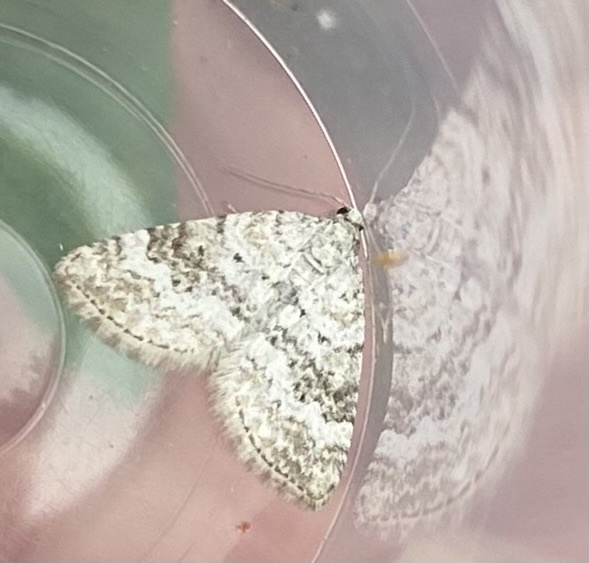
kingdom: Animalia
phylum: Arthropoda
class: Insecta
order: Lepidoptera
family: Geometridae
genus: Perizoma
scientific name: Perizoma albulata
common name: Grass rivulet
